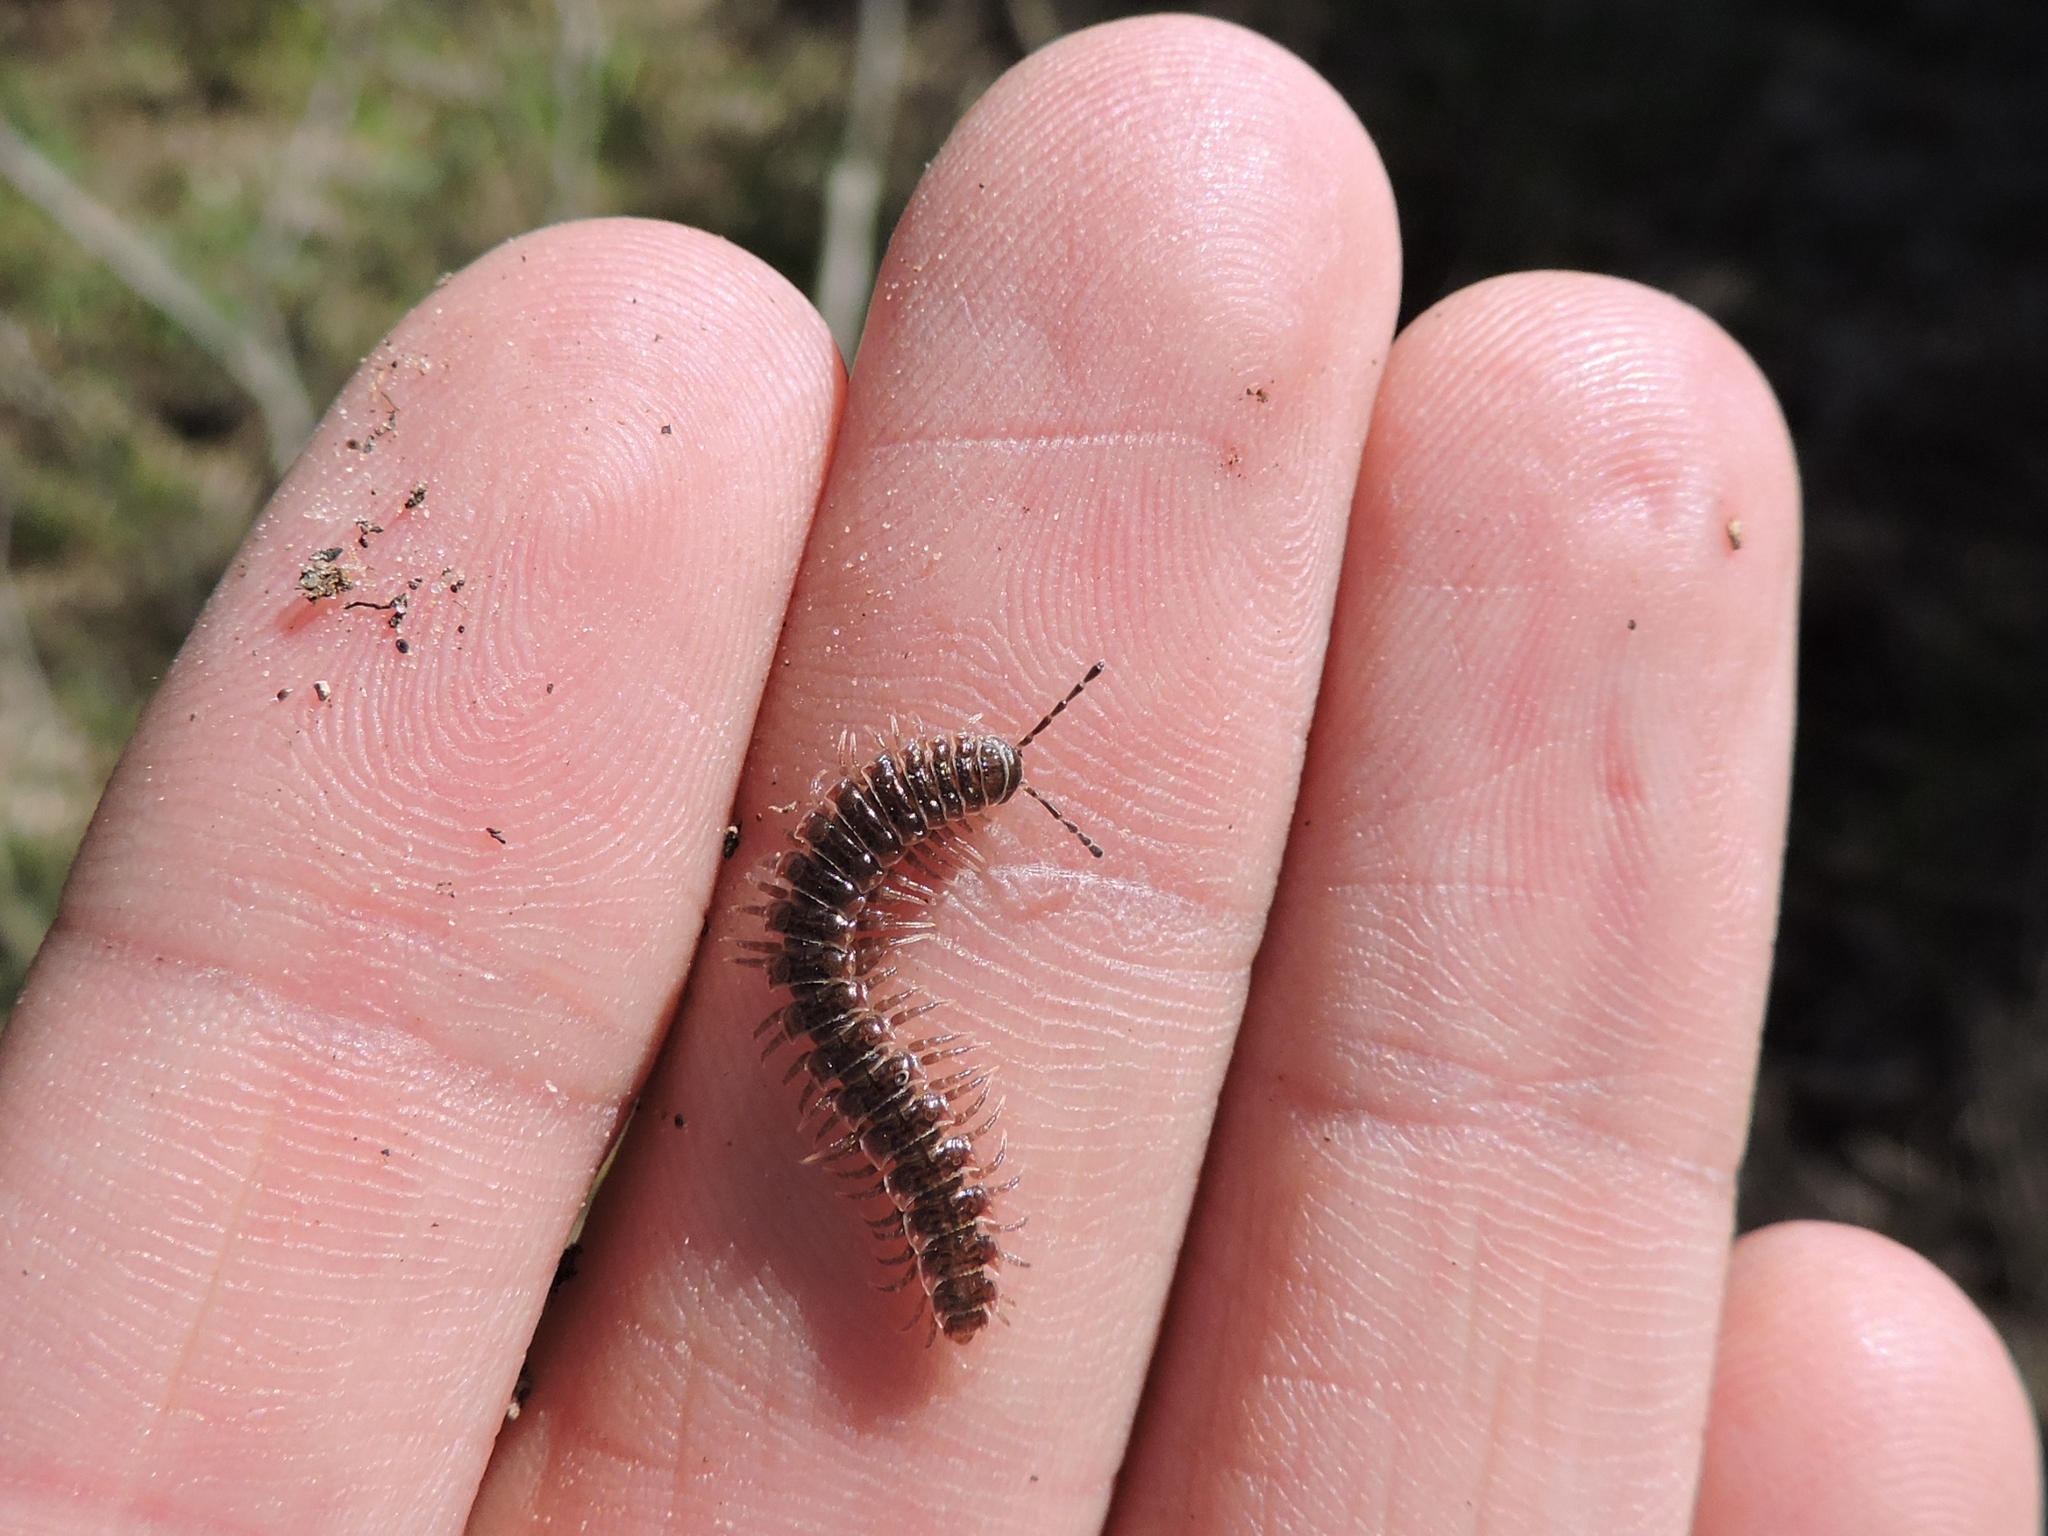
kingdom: Animalia
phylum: Arthropoda
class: Diplopoda
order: Polydesmida
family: Polydesmidae
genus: Pseudopolydesmus
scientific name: Pseudopolydesmus pinetorum
